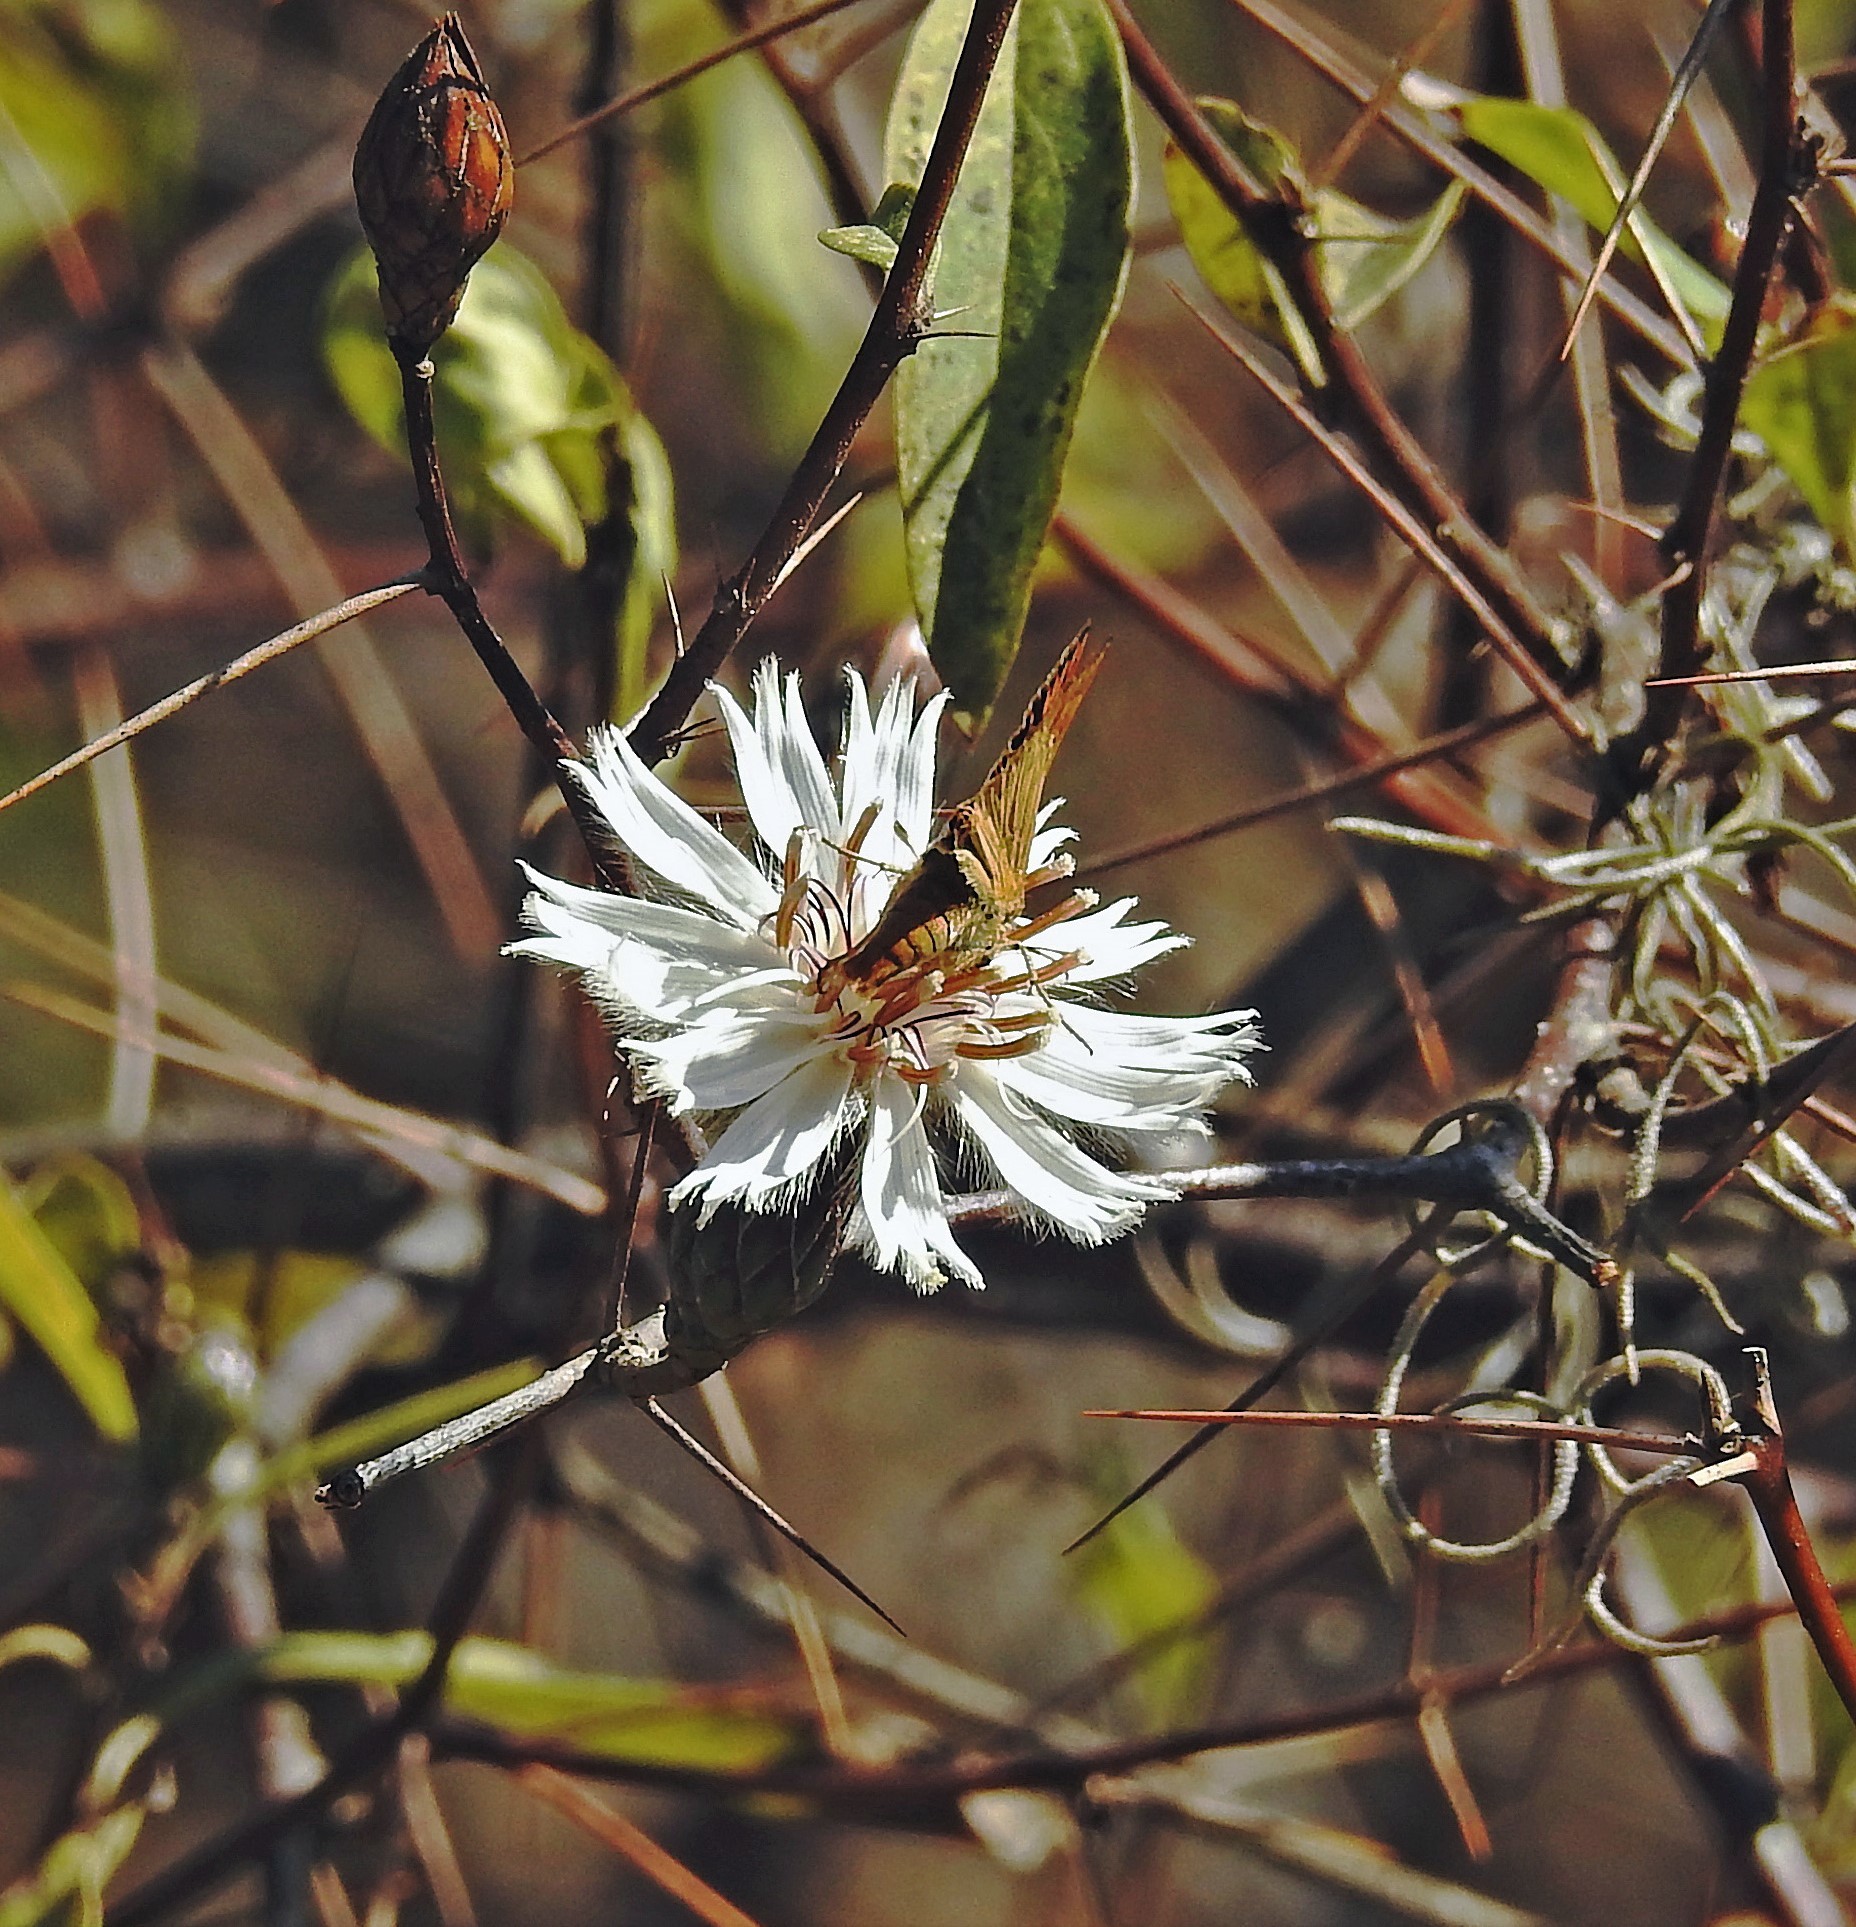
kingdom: Plantae
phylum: Tracheophyta
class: Magnoliopsida
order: Asterales
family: Asteraceae
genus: Barnadesia
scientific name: Barnadesia odorata
